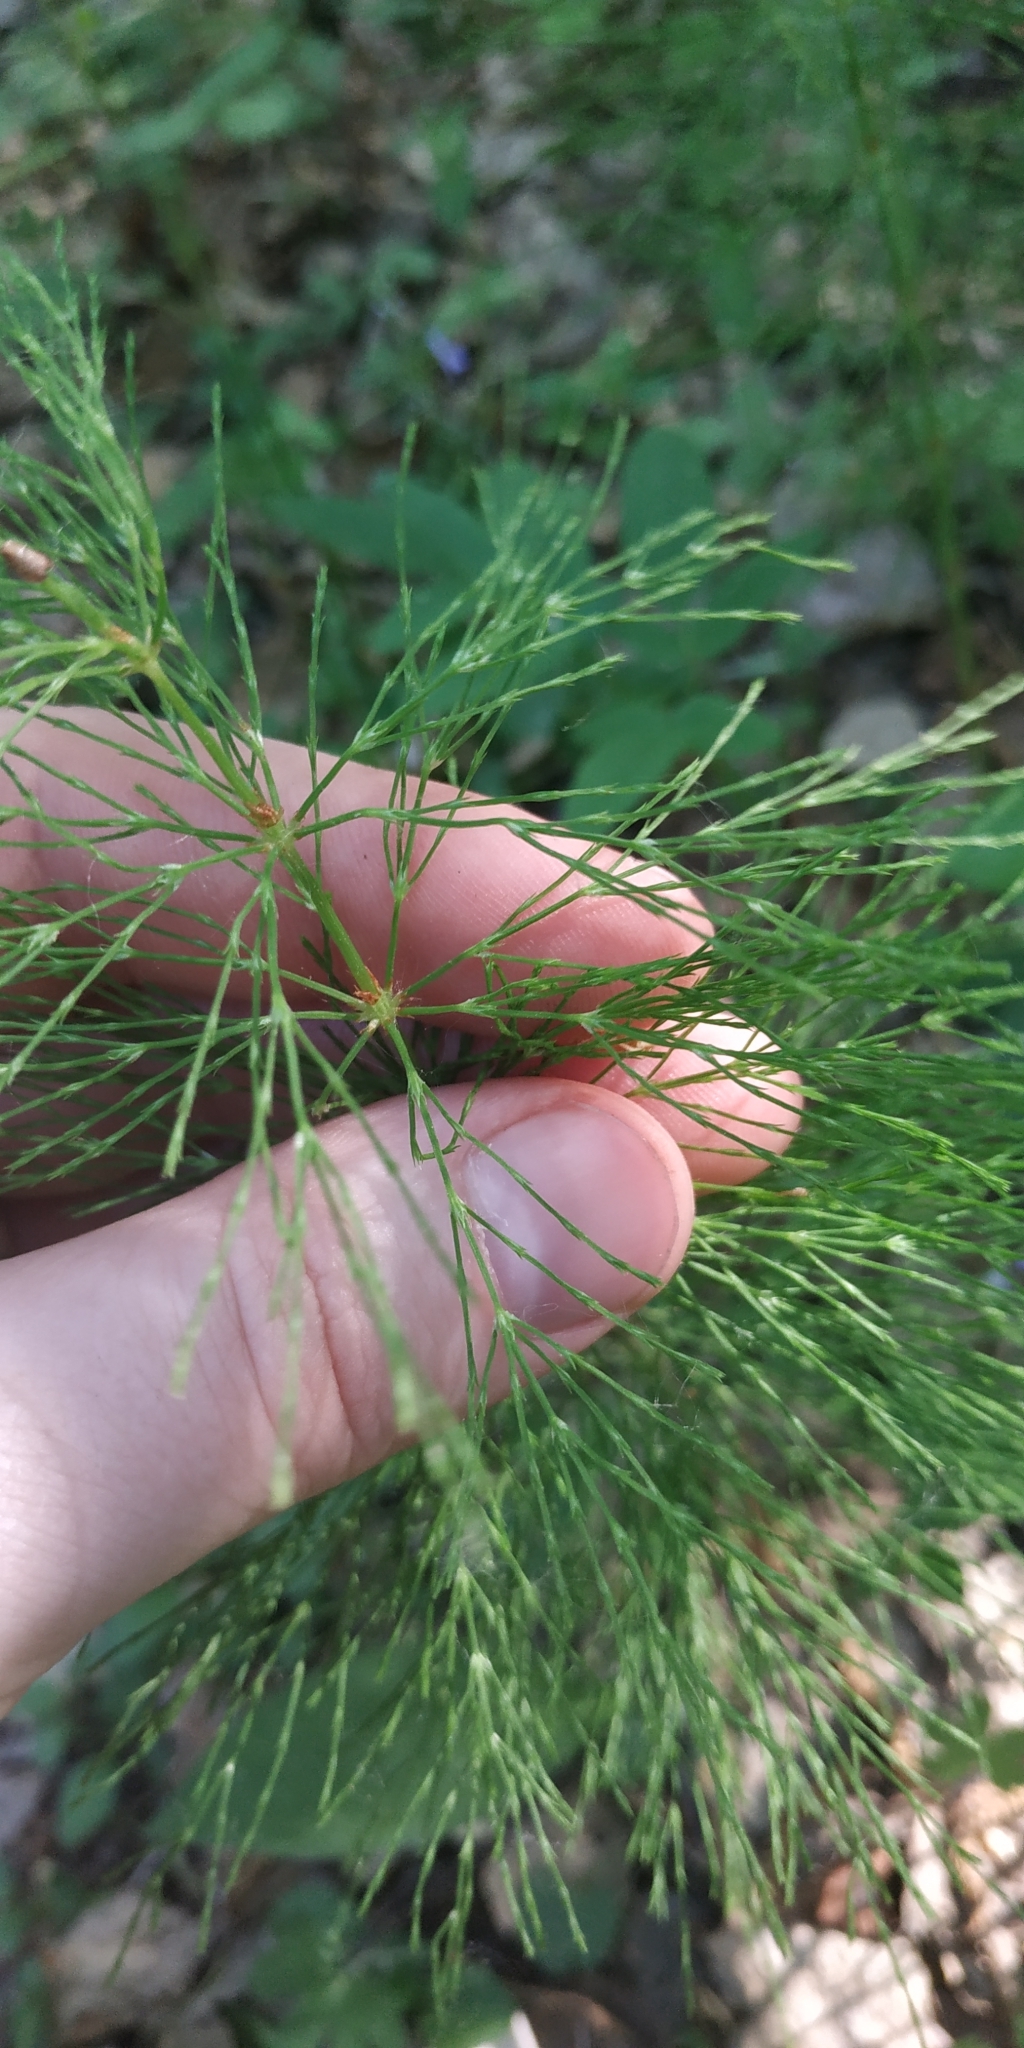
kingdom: Plantae
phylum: Tracheophyta
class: Polypodiopsida
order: Equisetales
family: Equisetaceae
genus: Equisetum
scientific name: Equisetum sylvaticum
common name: Wood horsetail
